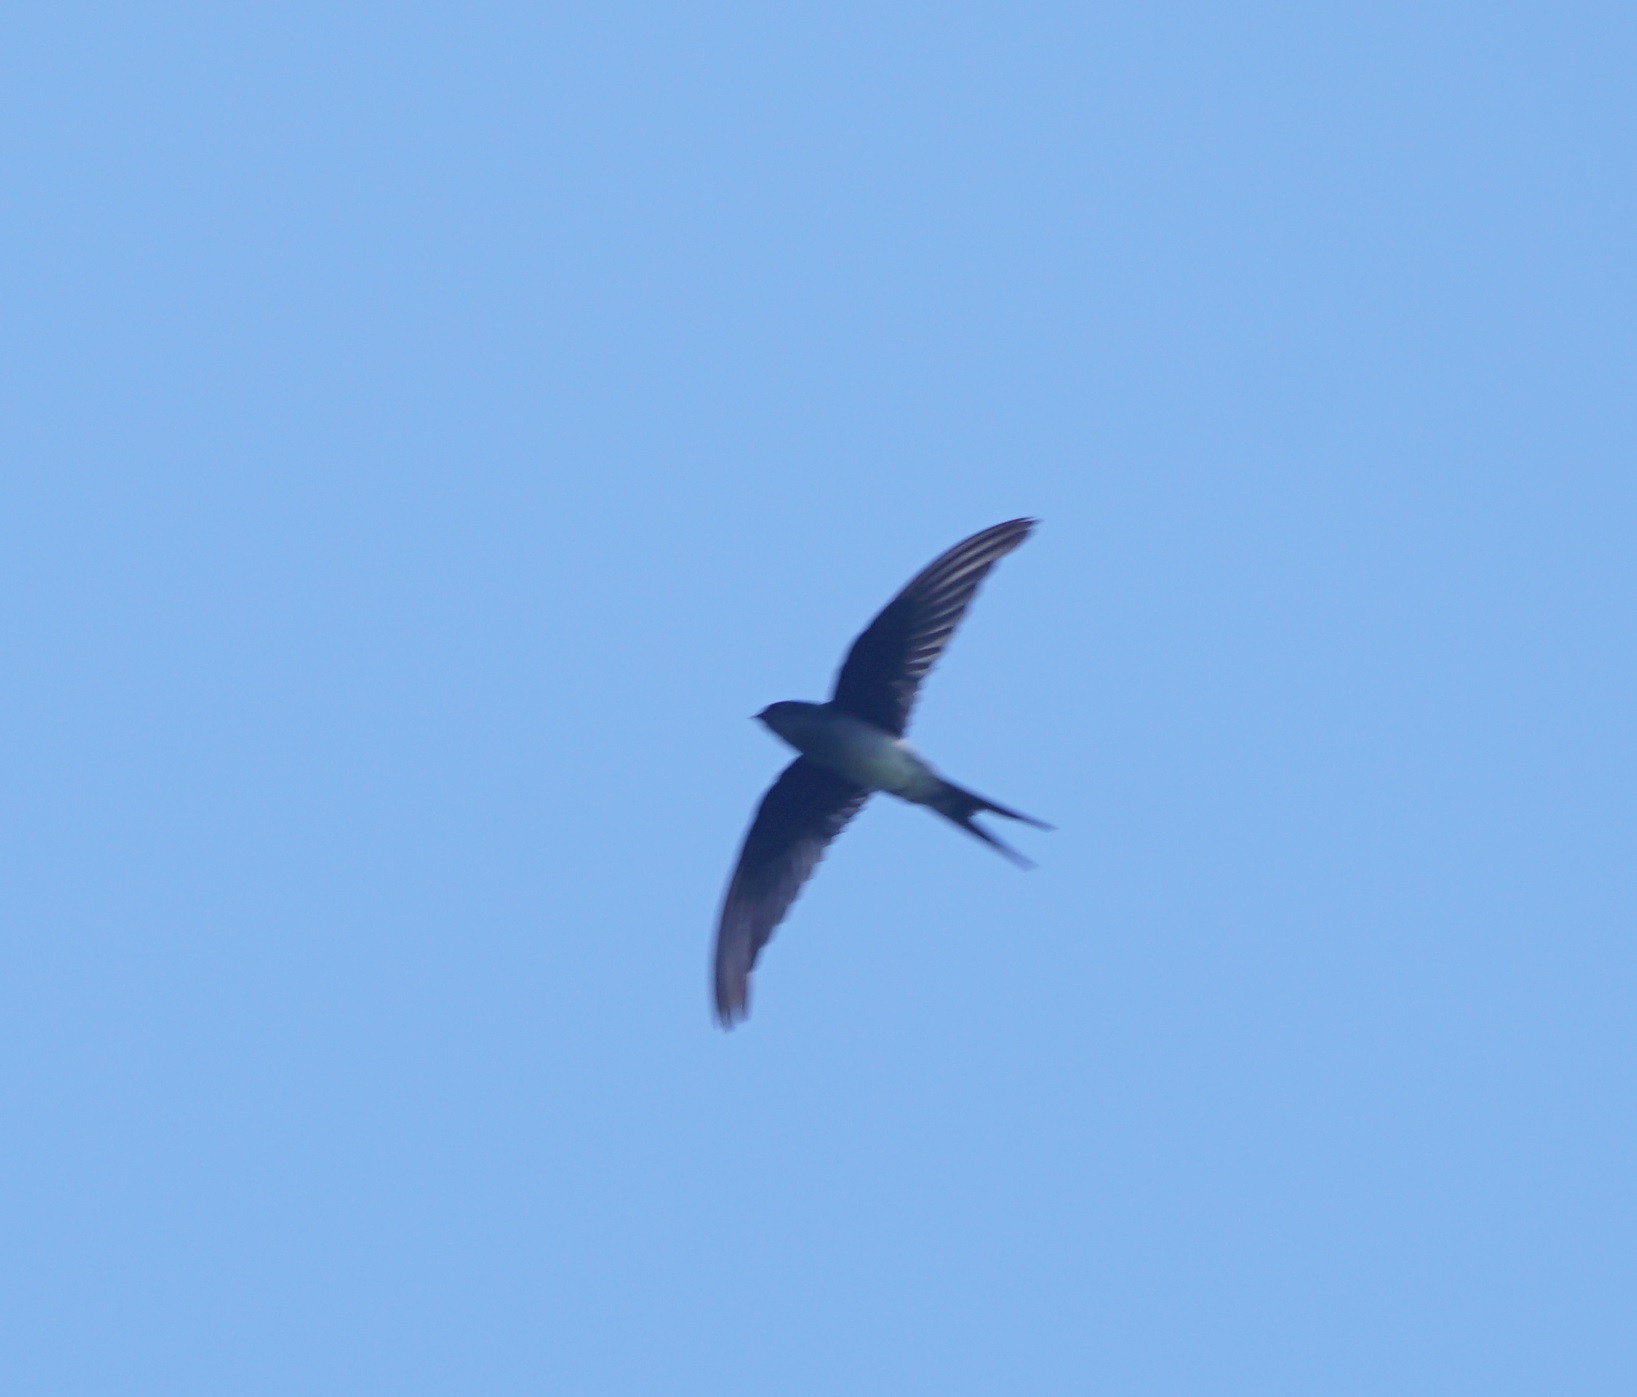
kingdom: Animalia
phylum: Chordata
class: Aves
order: Apodiformes
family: Hemiprocnidae
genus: Hemiprocne
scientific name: Hemiprocne longipennis
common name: Grey-rumped treeswift
